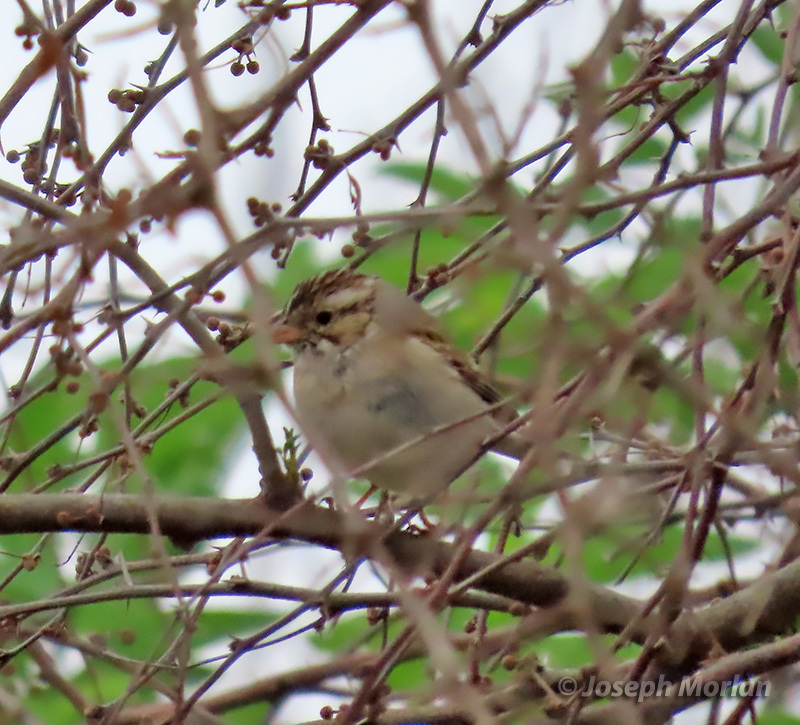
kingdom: Animalia
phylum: Chordata
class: Aves
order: Passeriformes
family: Passerellidae
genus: Spizella
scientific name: Spizella pallida
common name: Clay-colored sparrow
